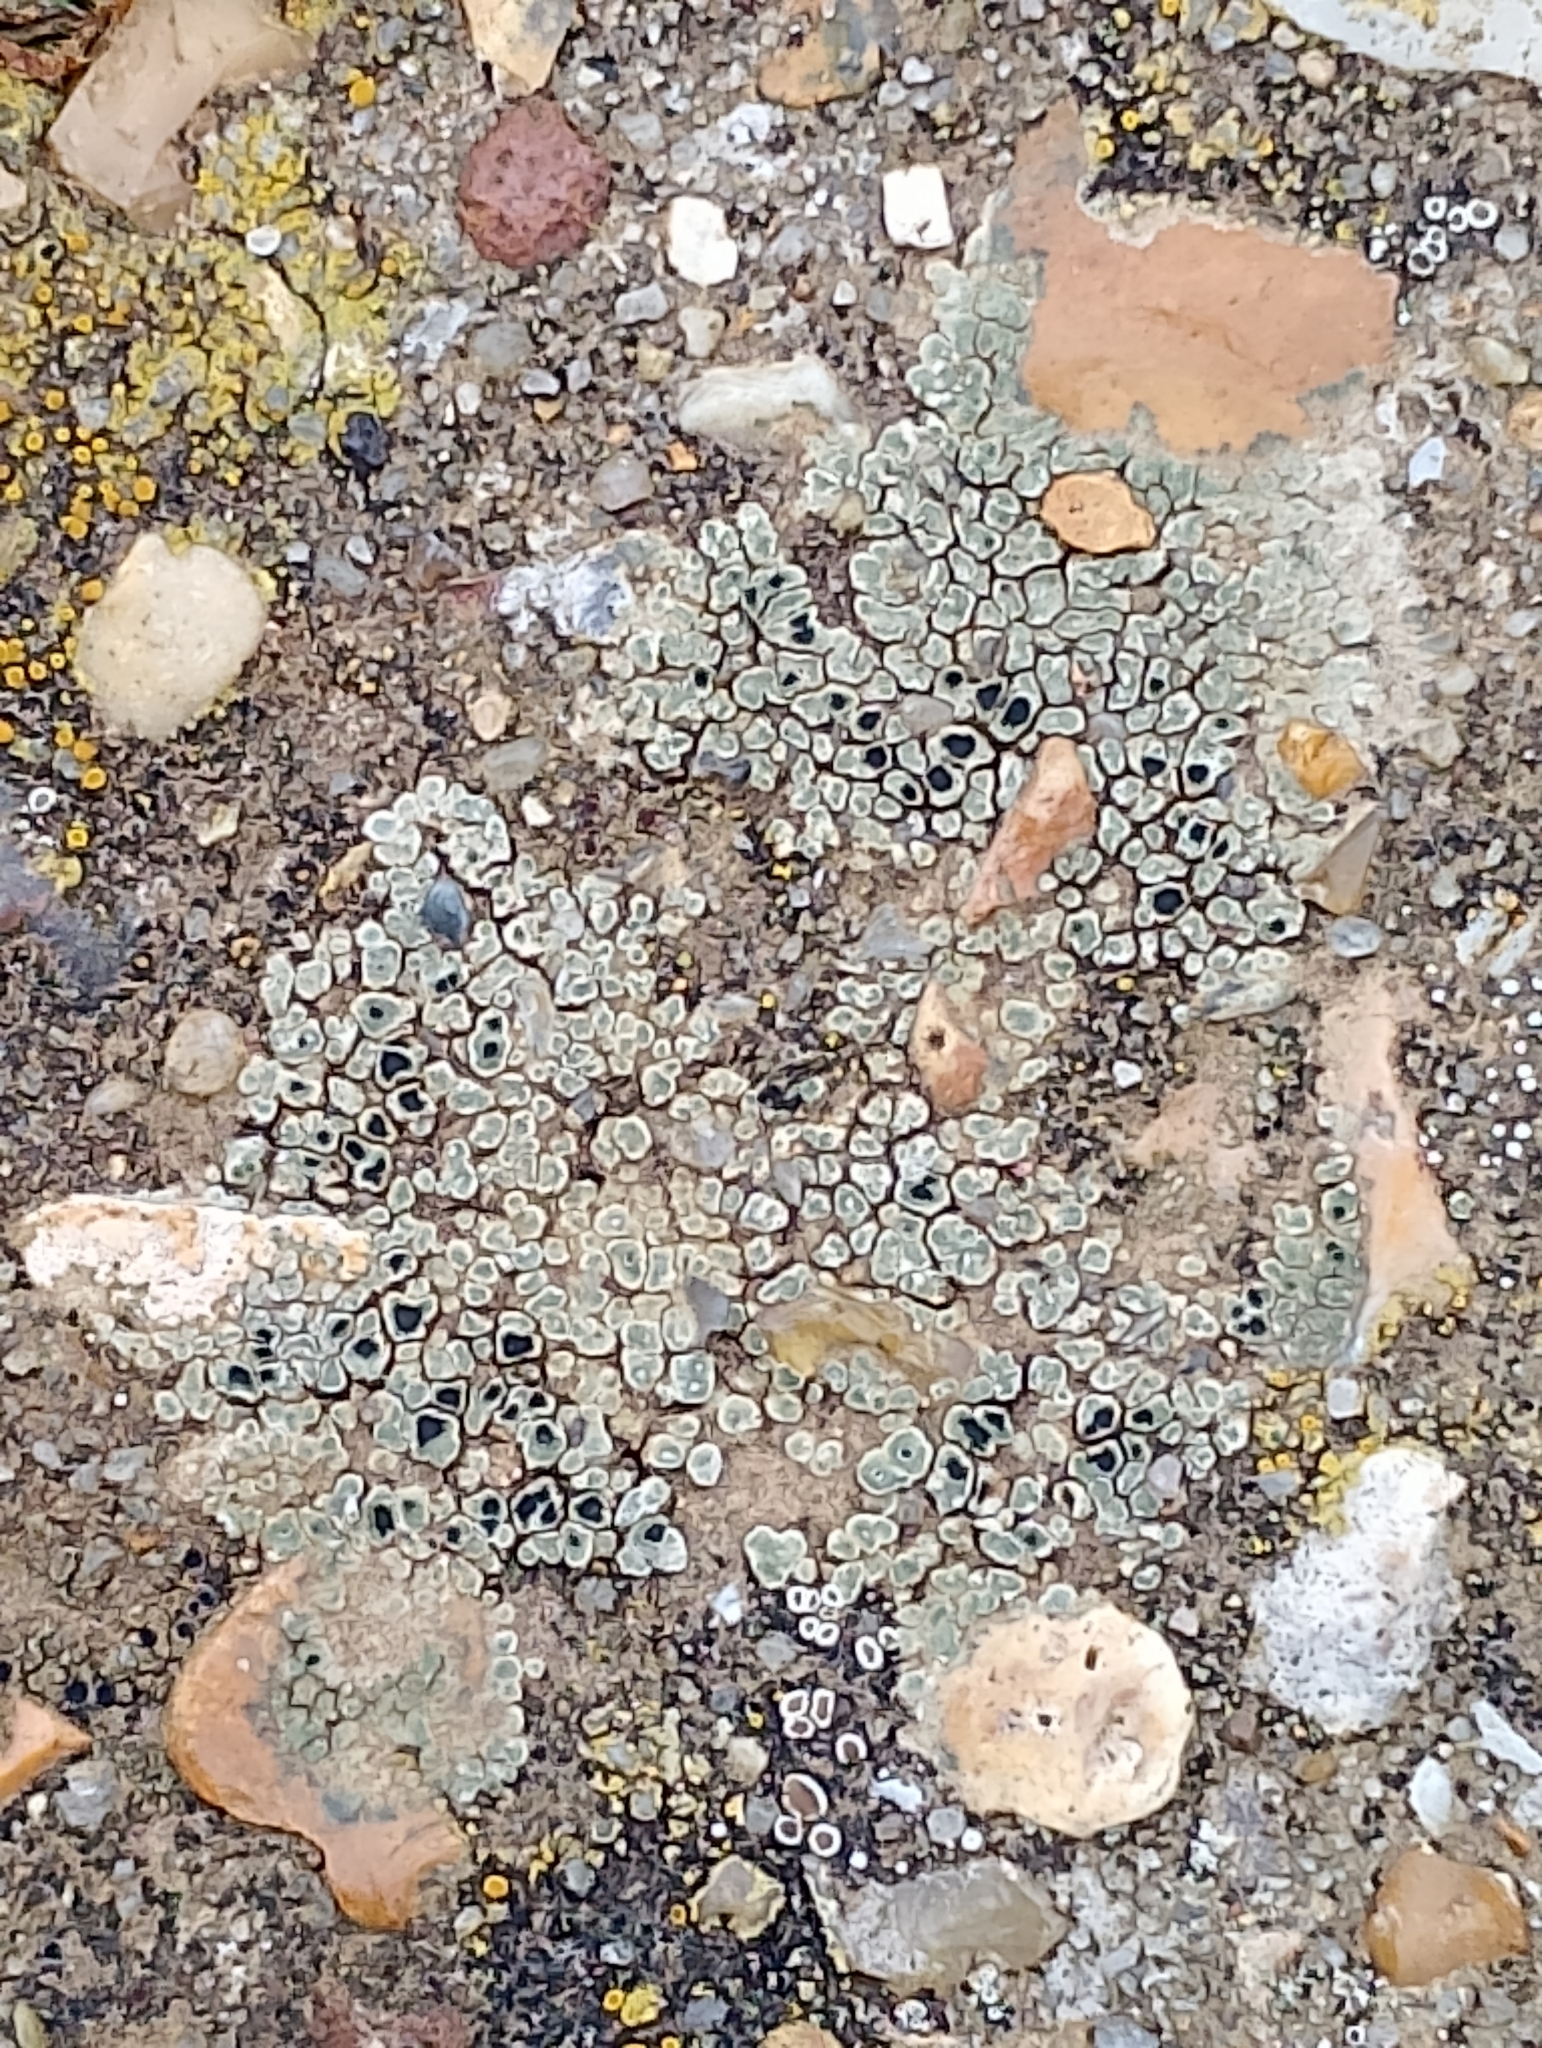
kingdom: Fungi
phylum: Ascomycota
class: Lecanoromycetes
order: Pertusariales
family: Megasporaceae
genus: Circinaria
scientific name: Circinaria contorta
